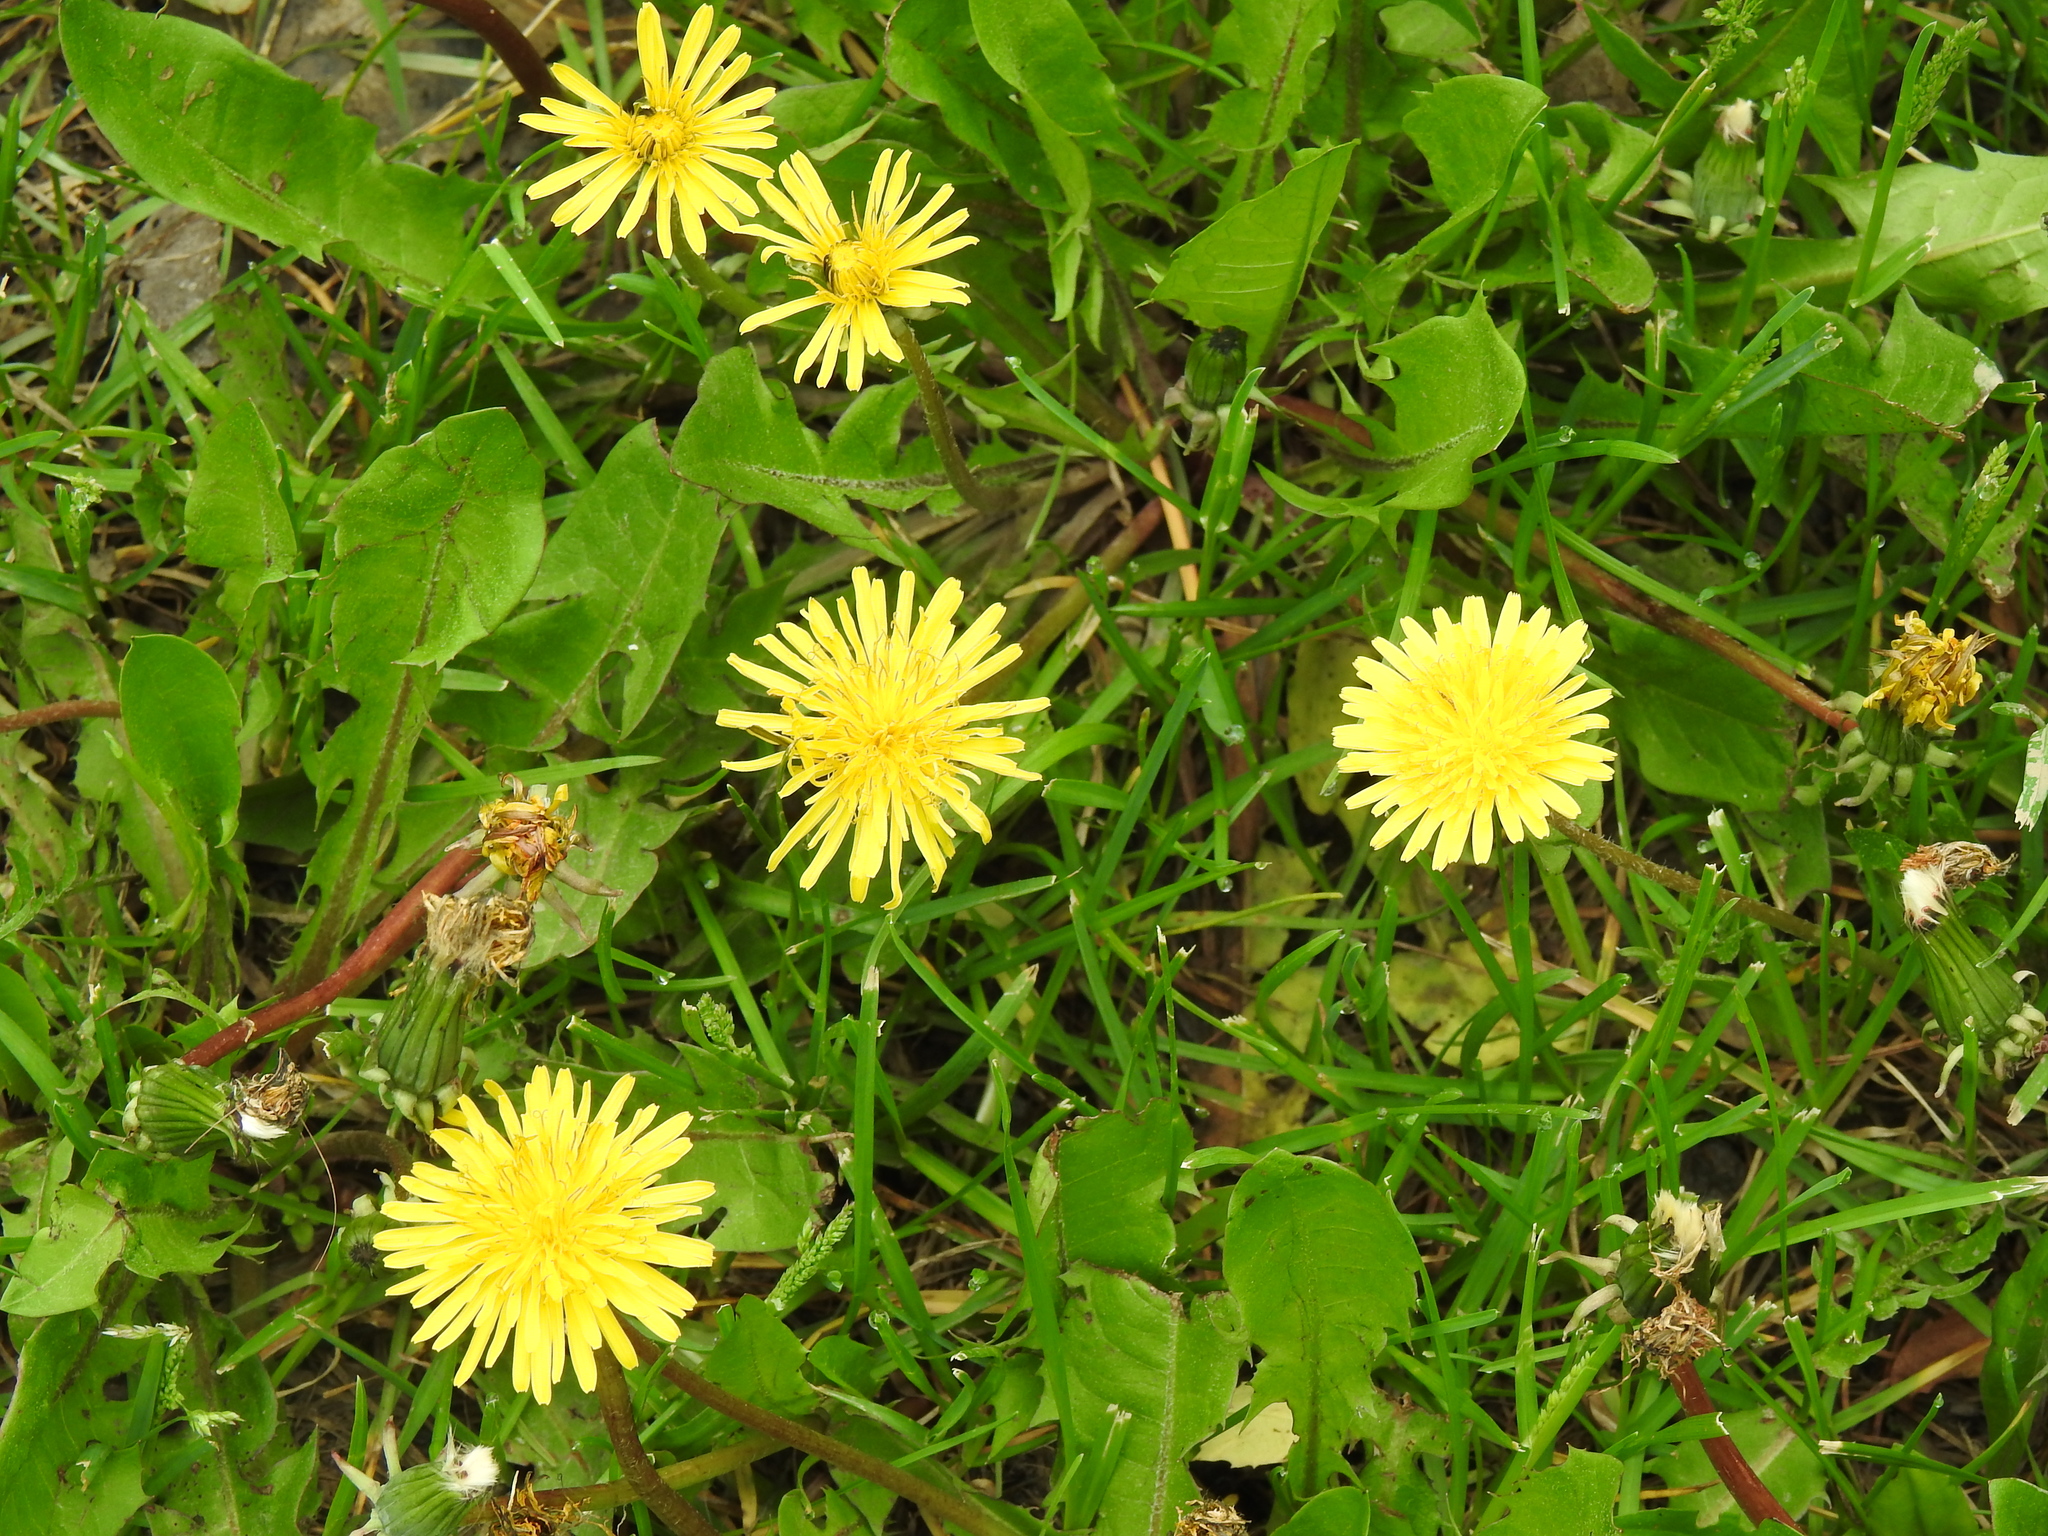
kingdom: Plantae
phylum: Tracheophyta
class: Magnoliopsida
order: Asterales
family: Asteraceae
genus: Taraxacum
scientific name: Taraxacum officinale
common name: Common dandelion
